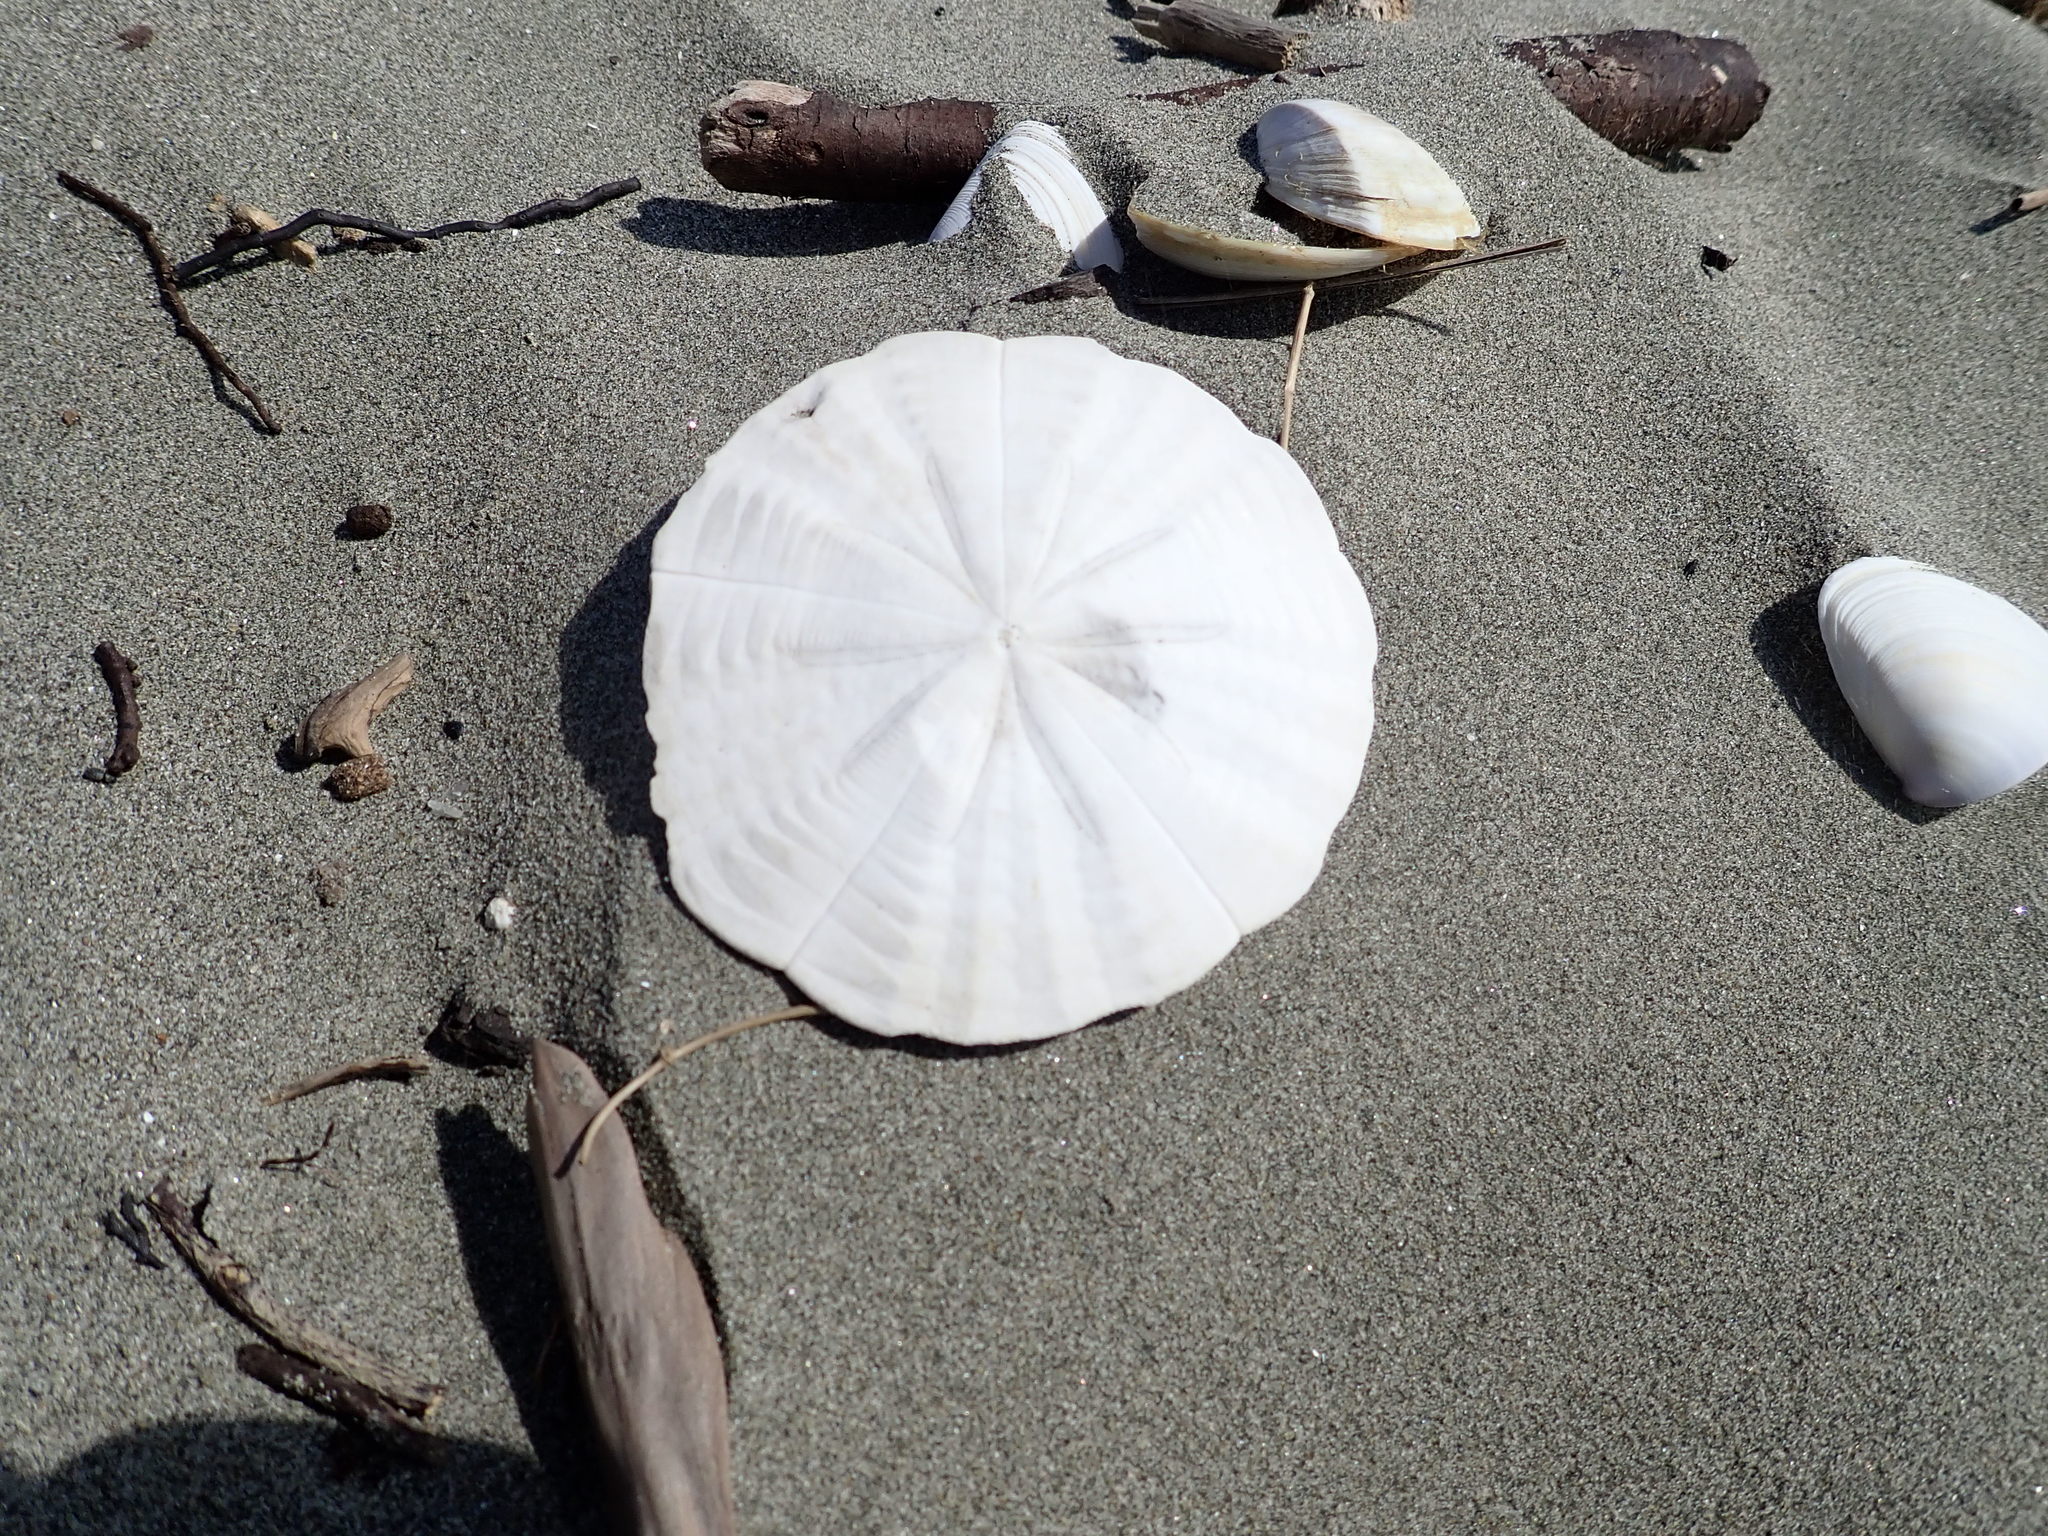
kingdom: Animalia
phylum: Echinodermata
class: Echinoidea
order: Clypeasteroida
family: Clypeasteridae
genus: Fellaster
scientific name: Fellaster zelandiae
